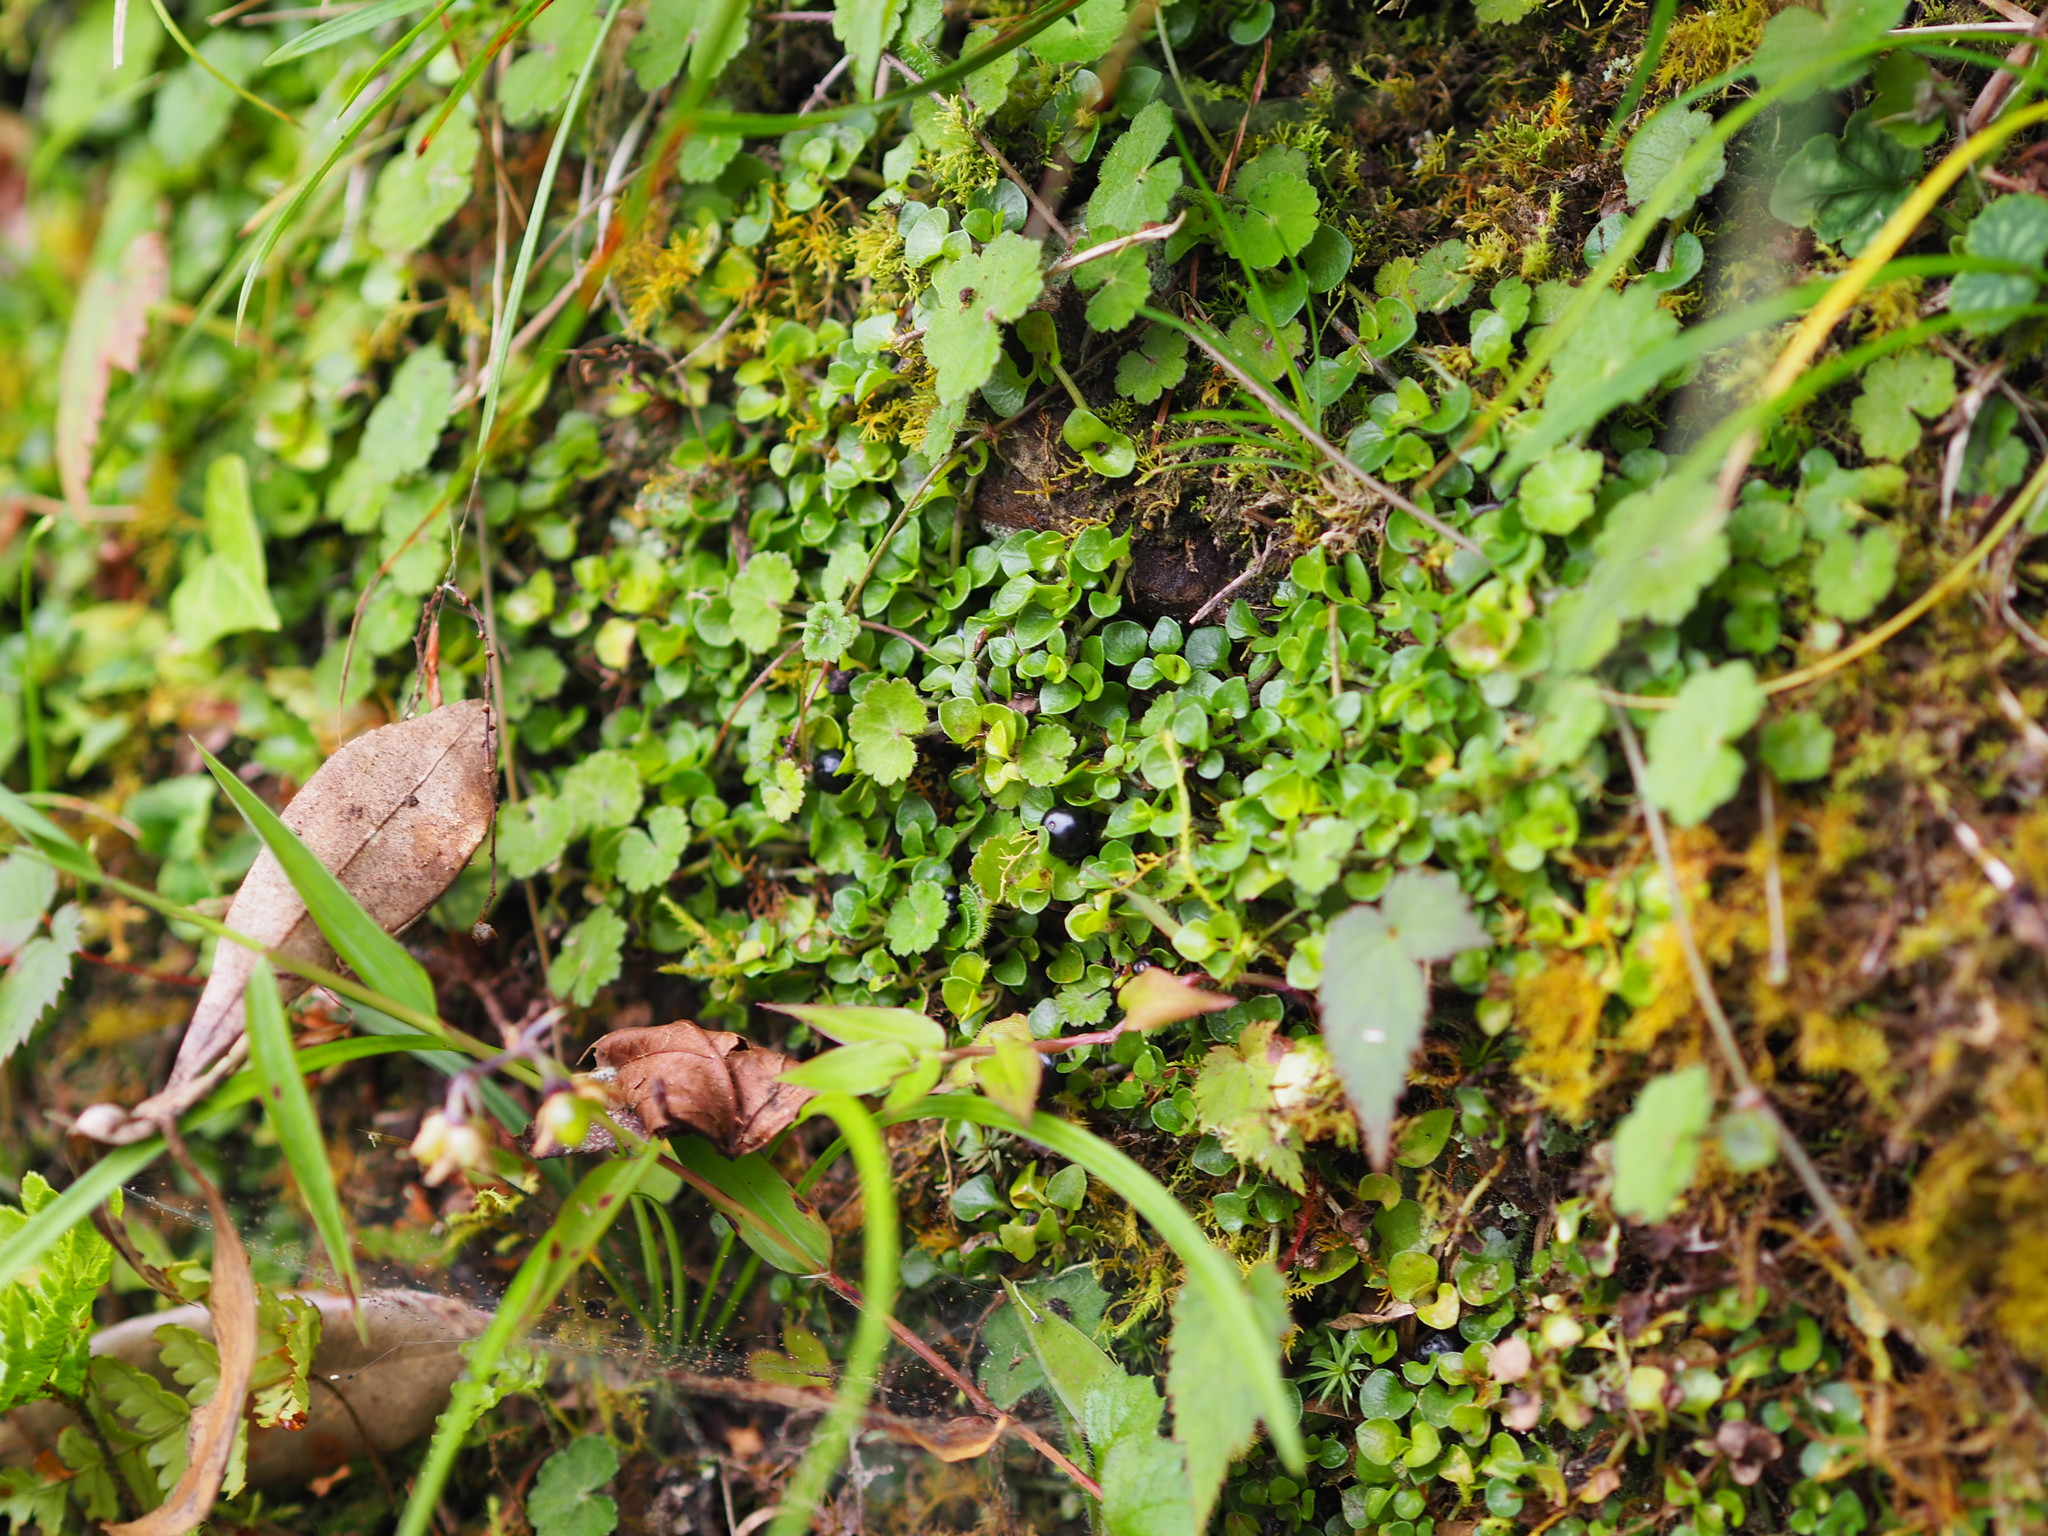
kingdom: Plantae
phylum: Tracheophyta
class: Magnoliopsida
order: Gentianales
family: Rubiaceae
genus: Nertera
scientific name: Nertera nigricarpa
